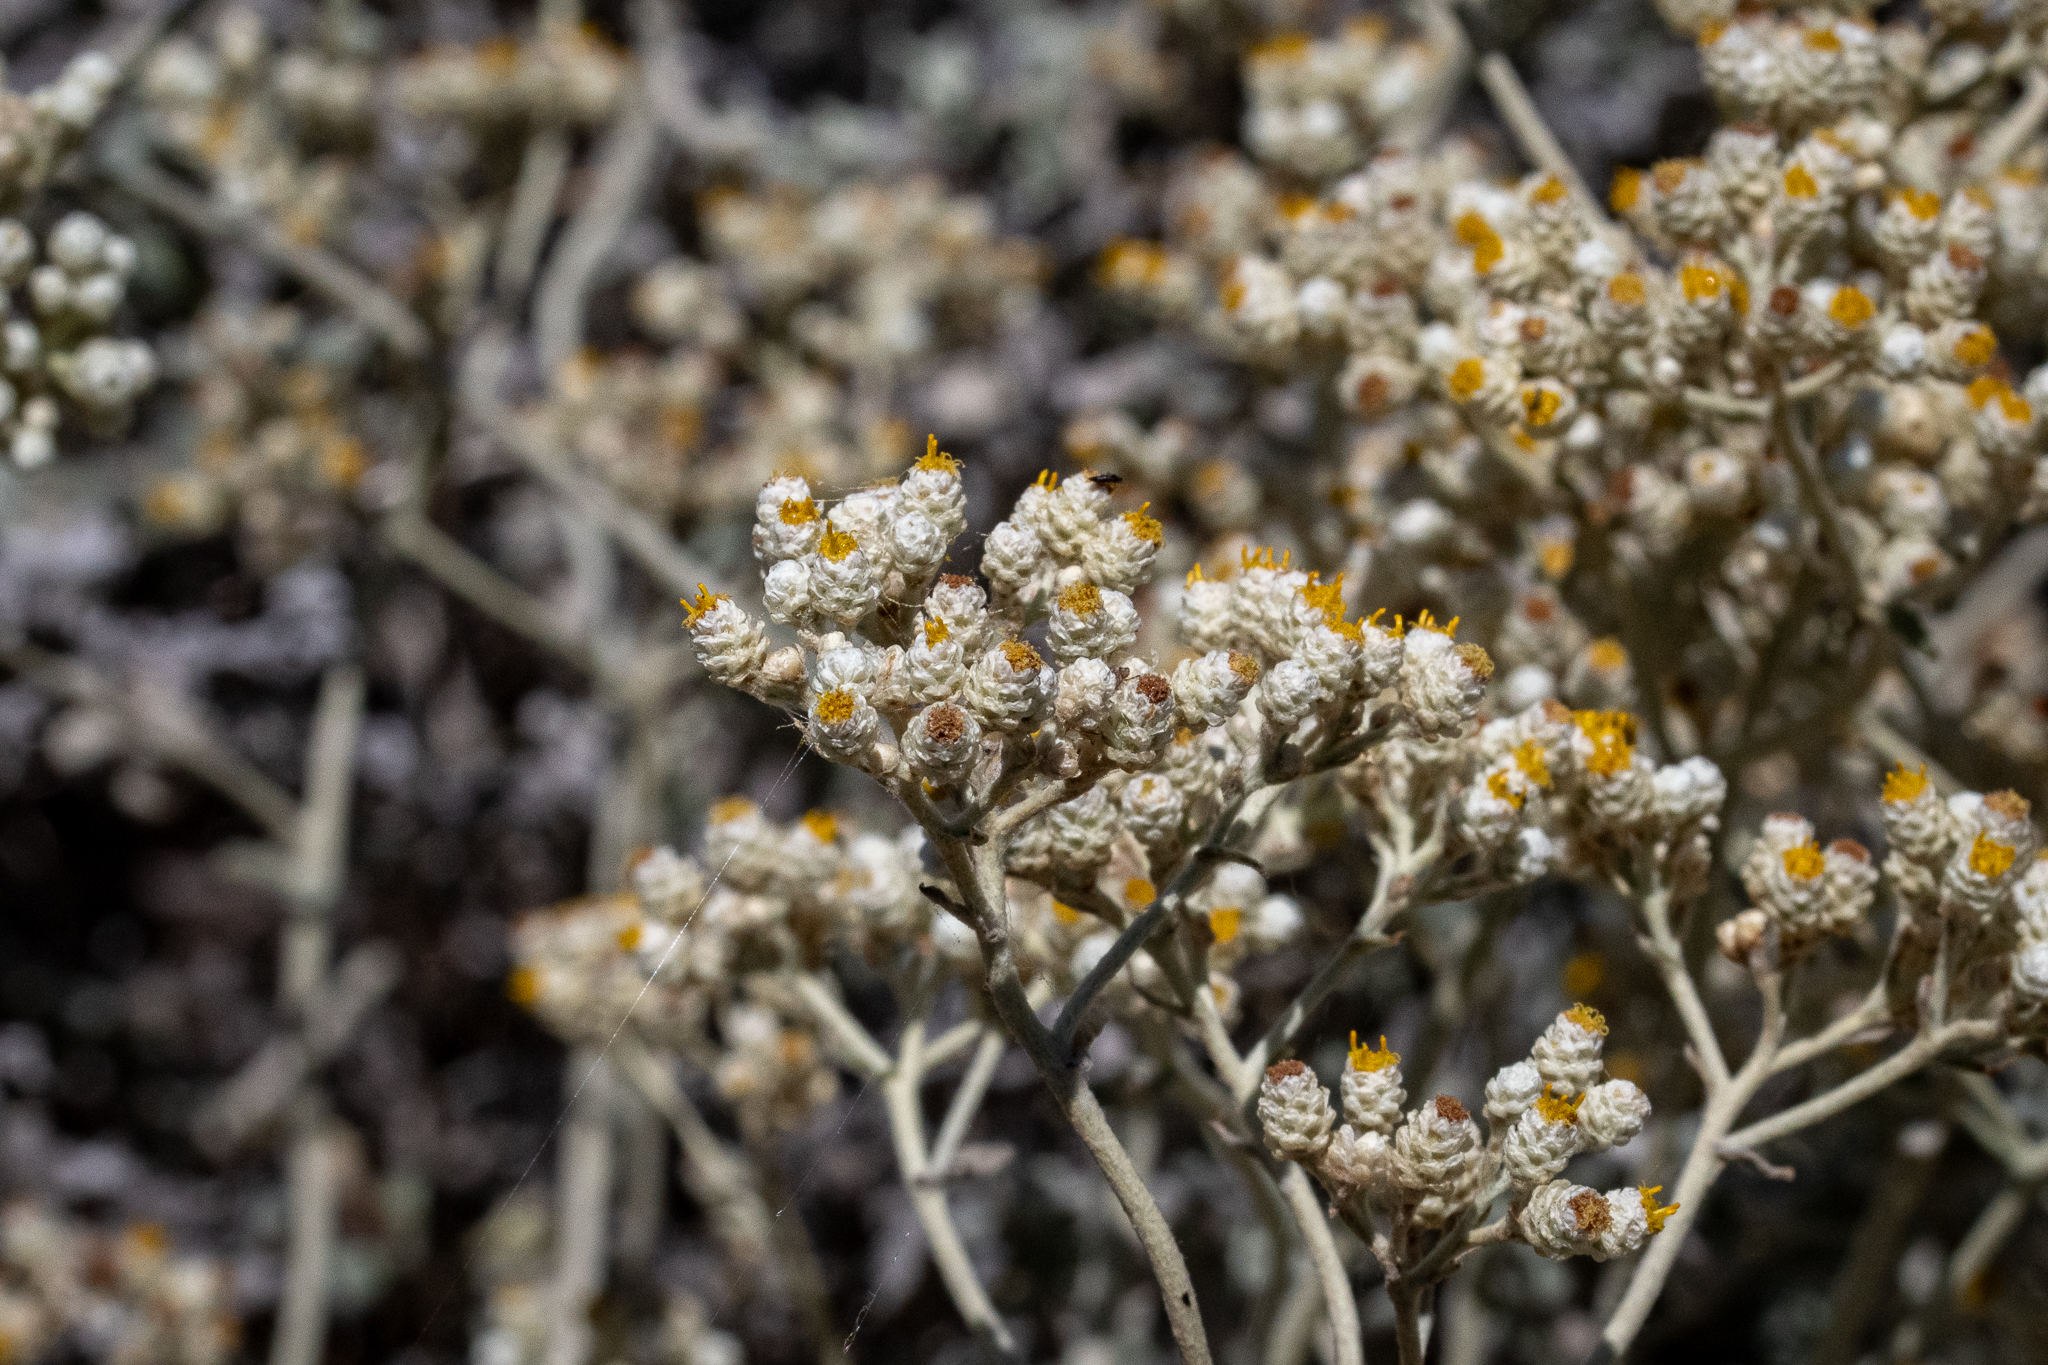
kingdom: Plantae
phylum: Tracheophyta
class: Magnoliopsida
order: Asterales
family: Asteraceae
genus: Helichrysum
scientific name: Helichrysum patulum
